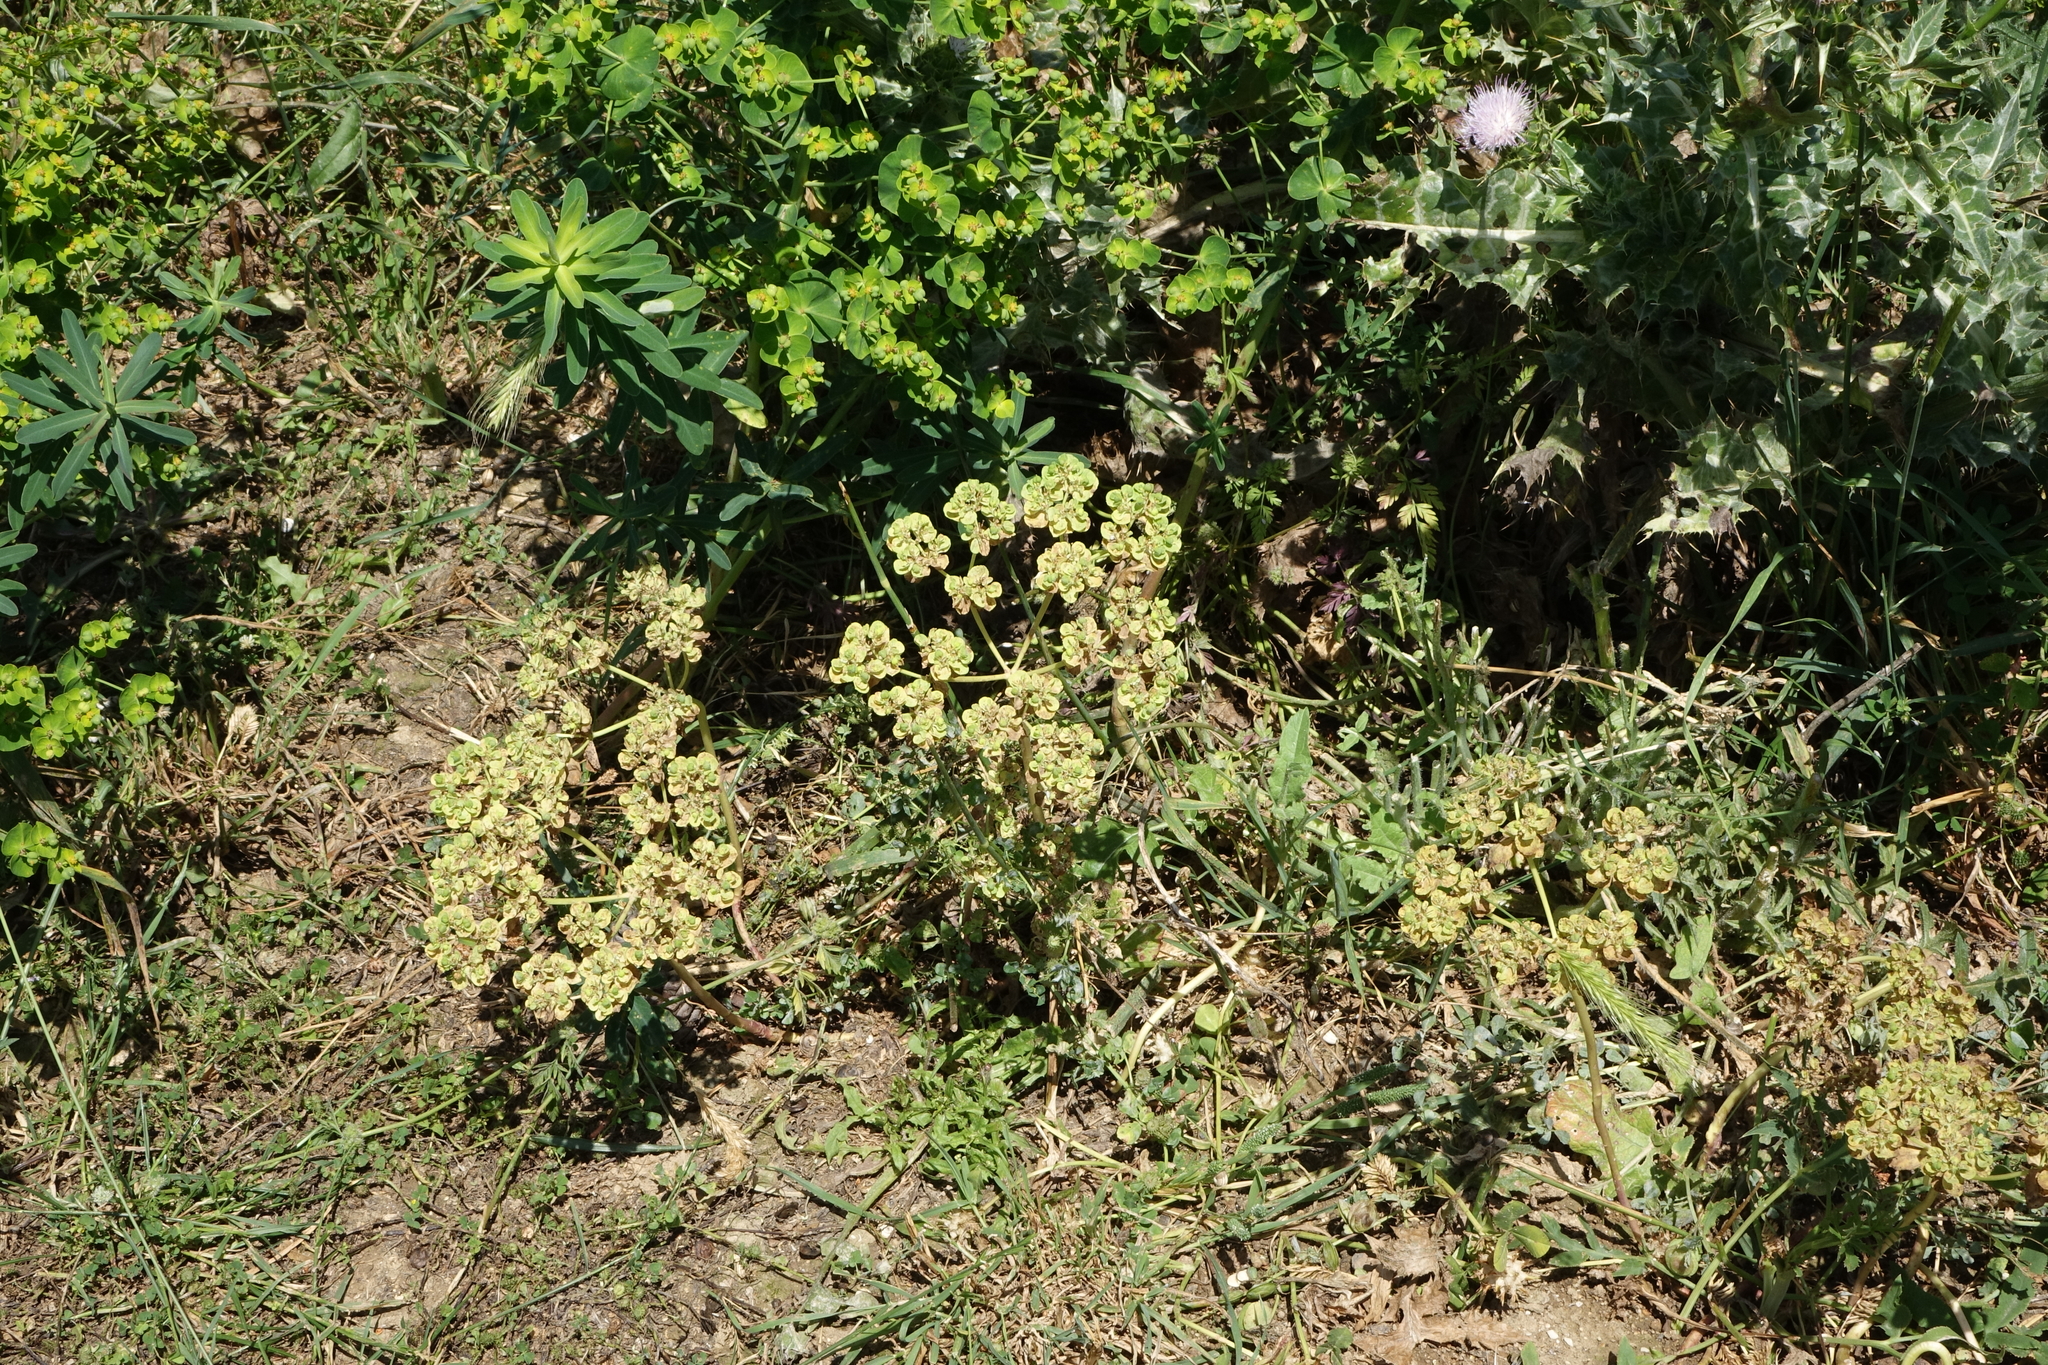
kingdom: Plantae
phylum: Tracheophyta
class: Magnoliopsida
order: Malpighiales
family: Euphorbiaceae
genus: Euphorbia
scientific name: Euphorbia helioscopia
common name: Sun spurge
